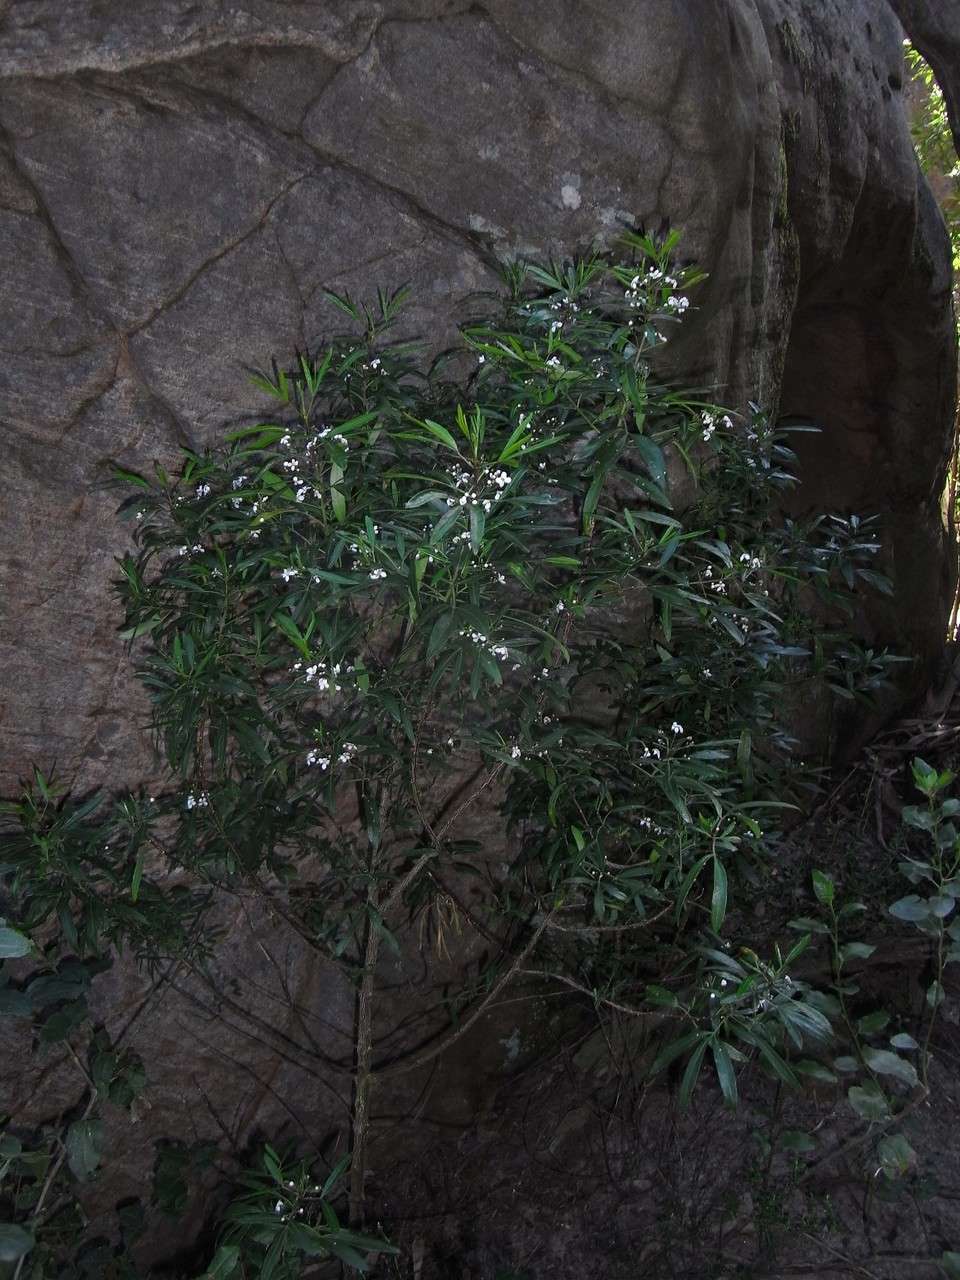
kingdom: Plantae
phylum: Tracheophyta
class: Magnoliopsida
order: Sapindales
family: Rutaceae
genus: Zieria
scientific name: Zieria oreocena
